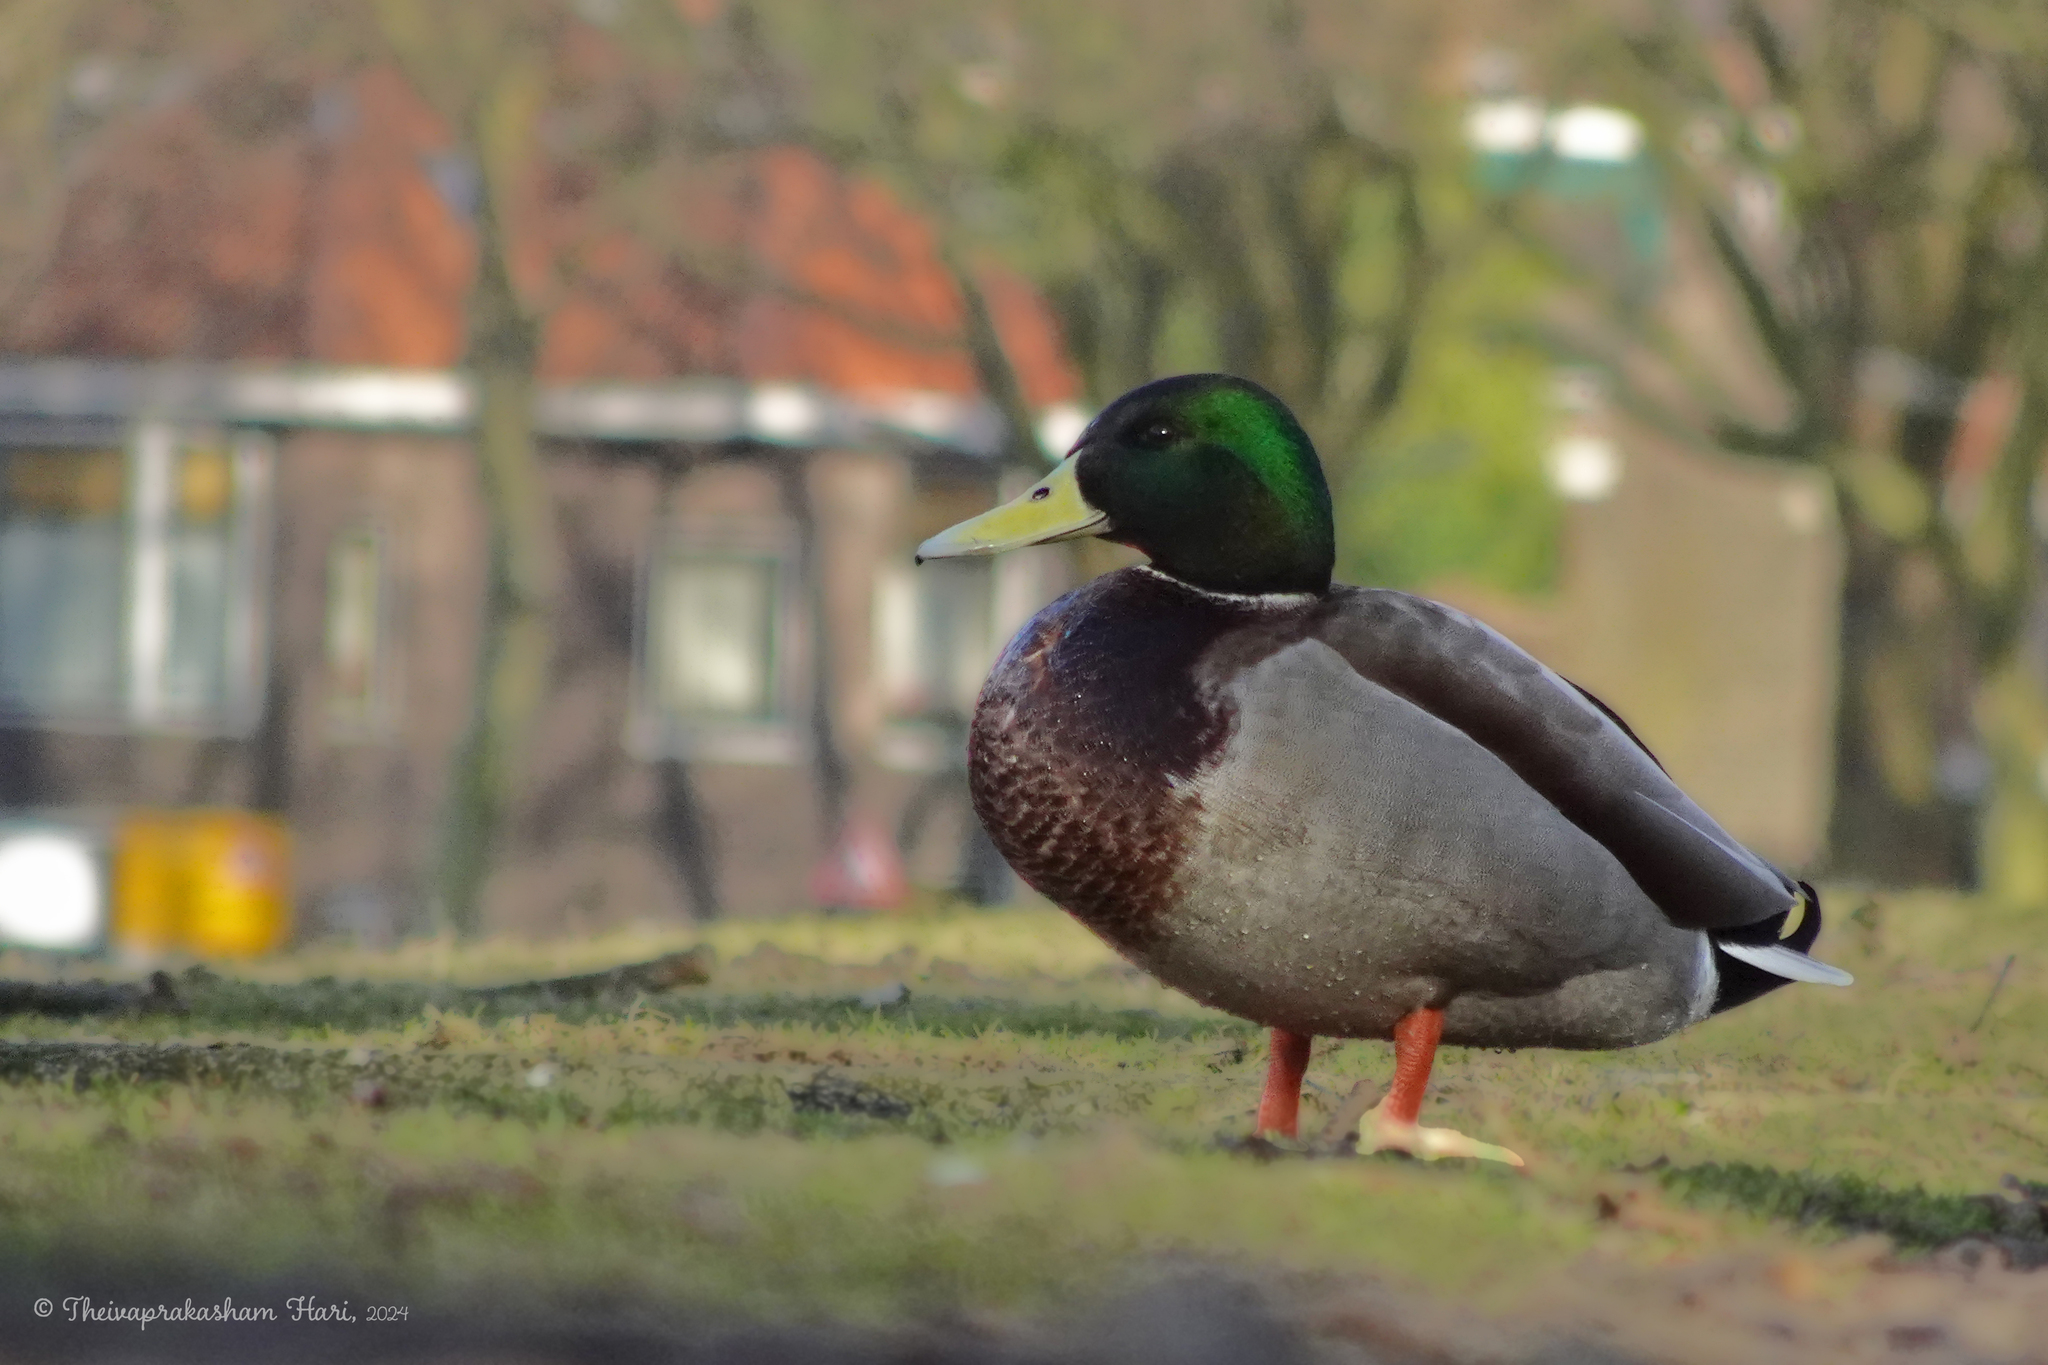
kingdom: Animalia
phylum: Chordata
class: Aves
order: Anseriformes
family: Anatidae
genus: Anas
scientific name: Anas platyrhynchos
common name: Mallard
